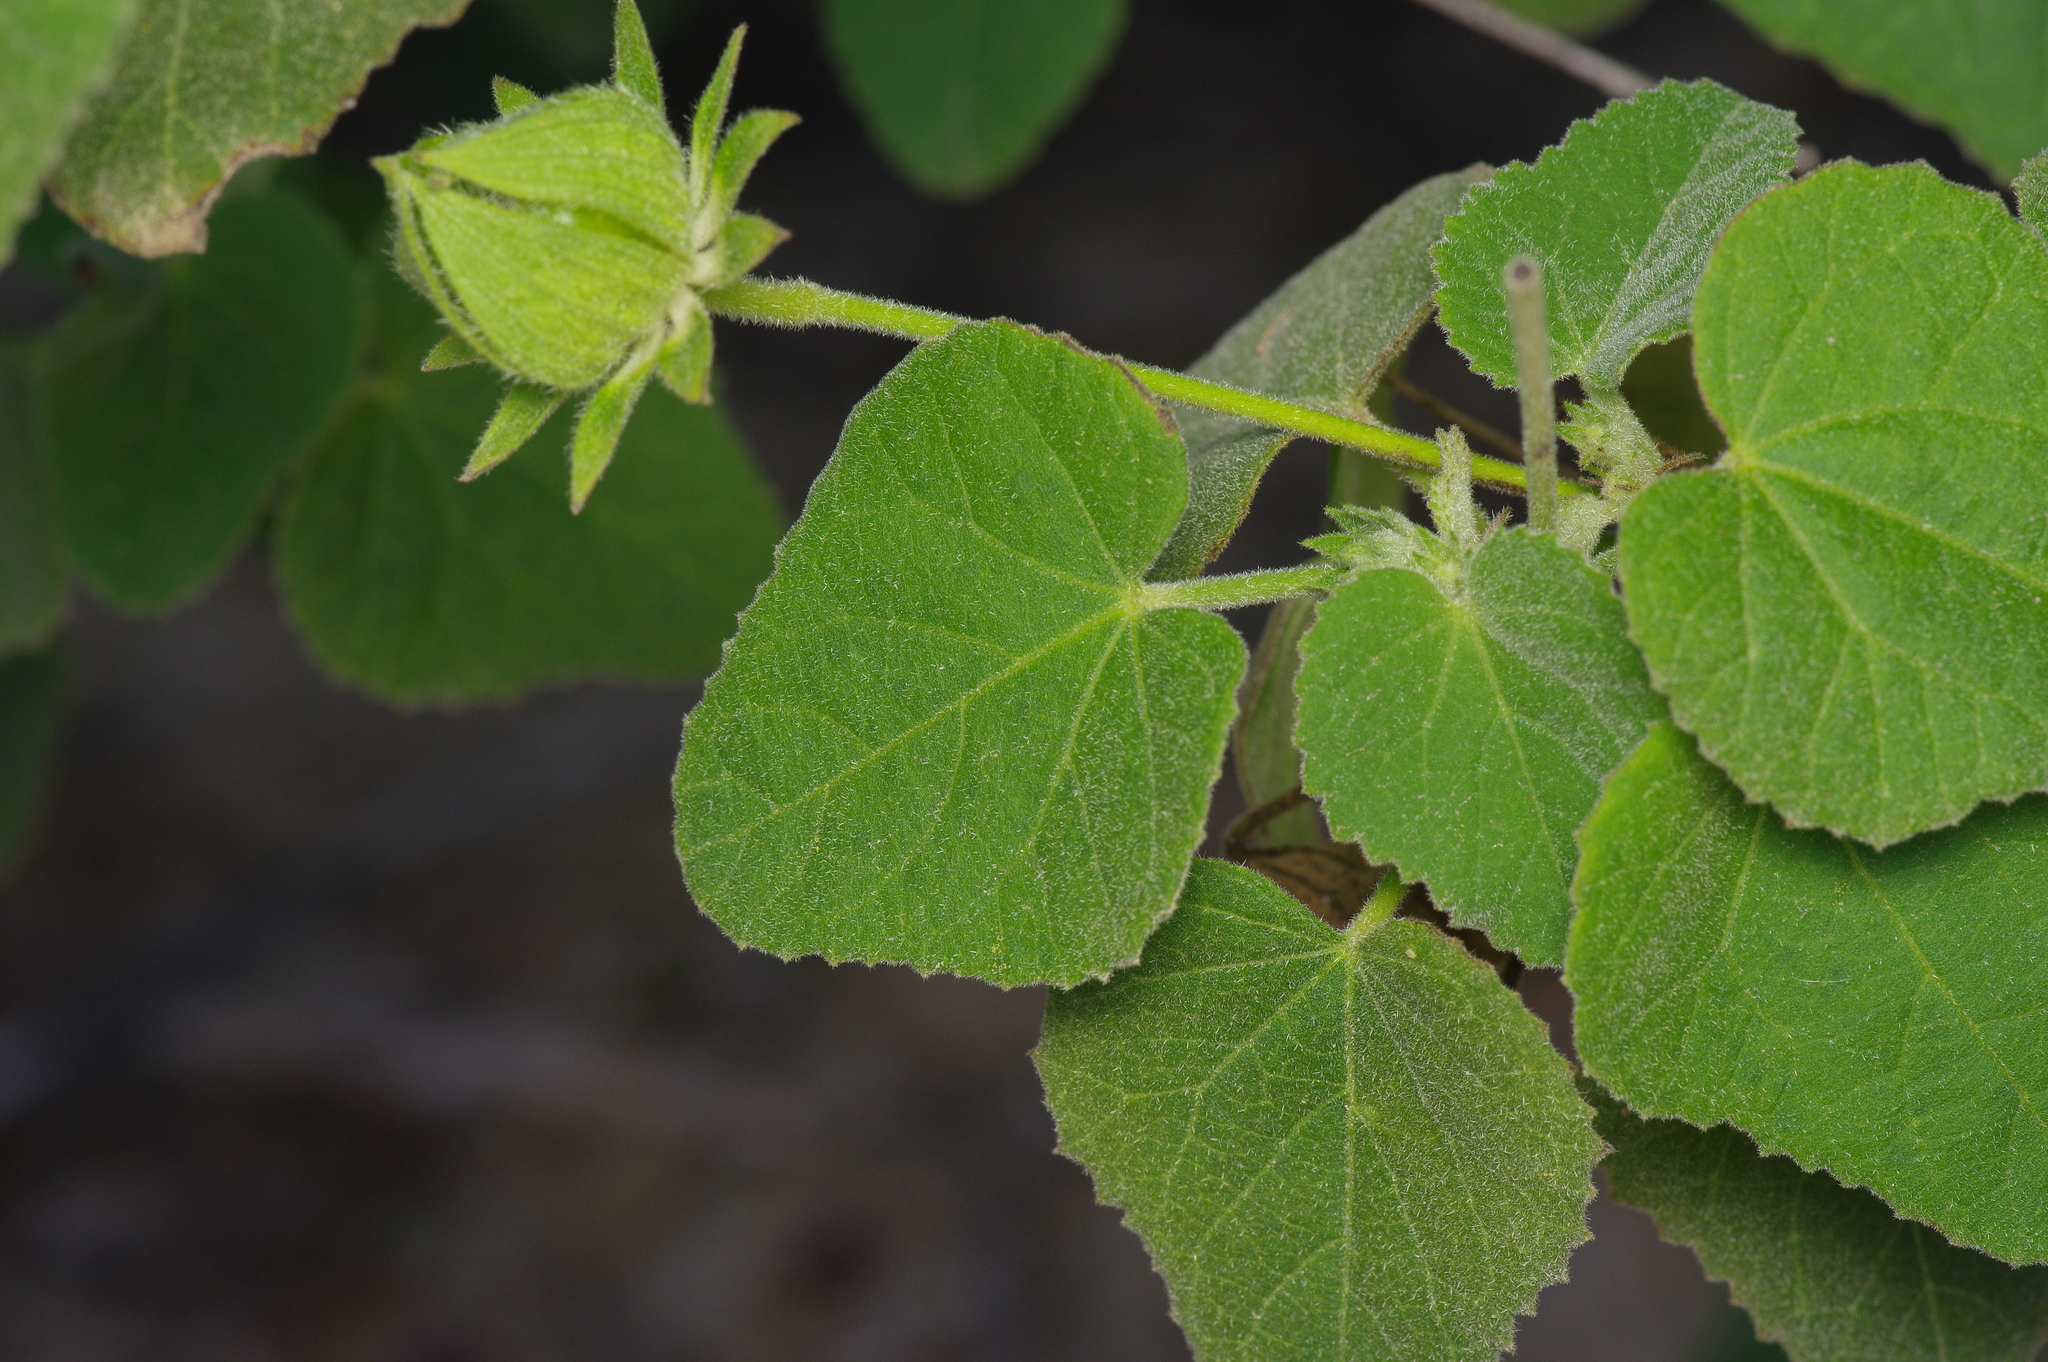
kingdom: Plantae
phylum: Tracheophyta
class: Magnoliopsida
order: Malvales
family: Malvaceae
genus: Hibiscus
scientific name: Hibiscus martianus
